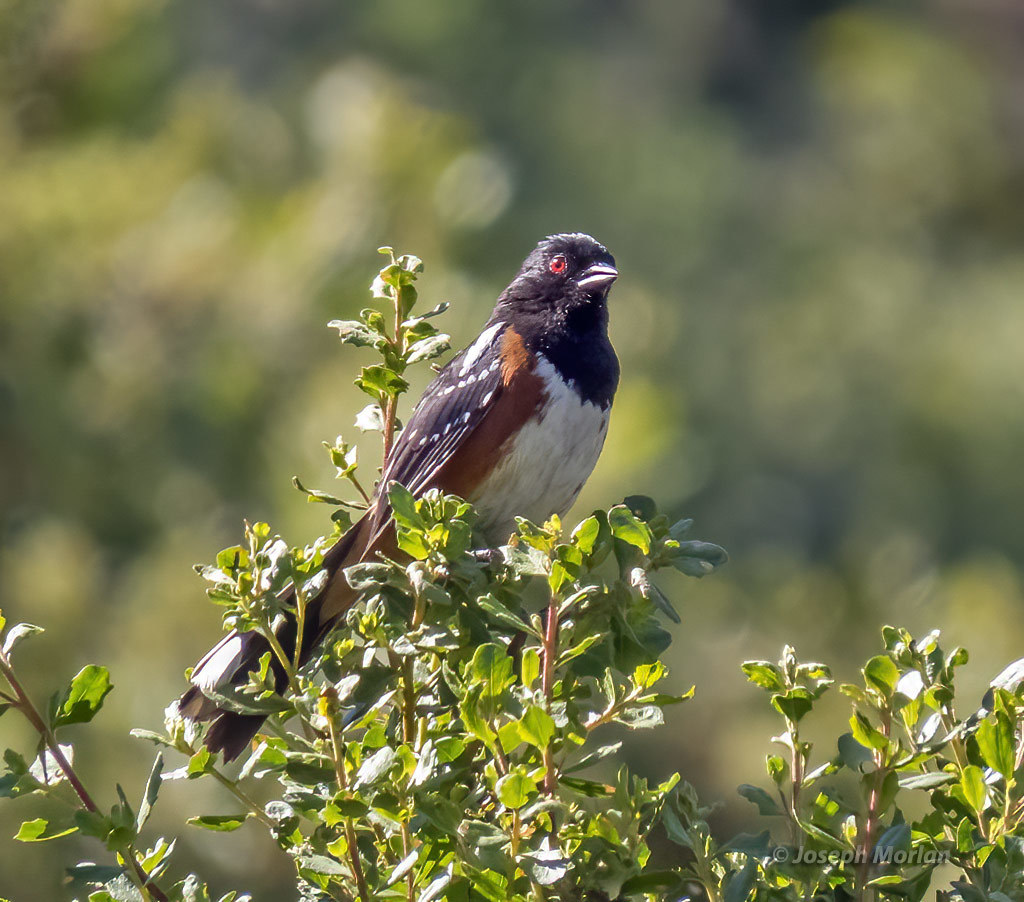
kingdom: Animalia
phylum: Chordata
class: Aves
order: Passeriformes
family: Passerellidae
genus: Pipilo
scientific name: Pipilo maculatus
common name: Spotted towhee
